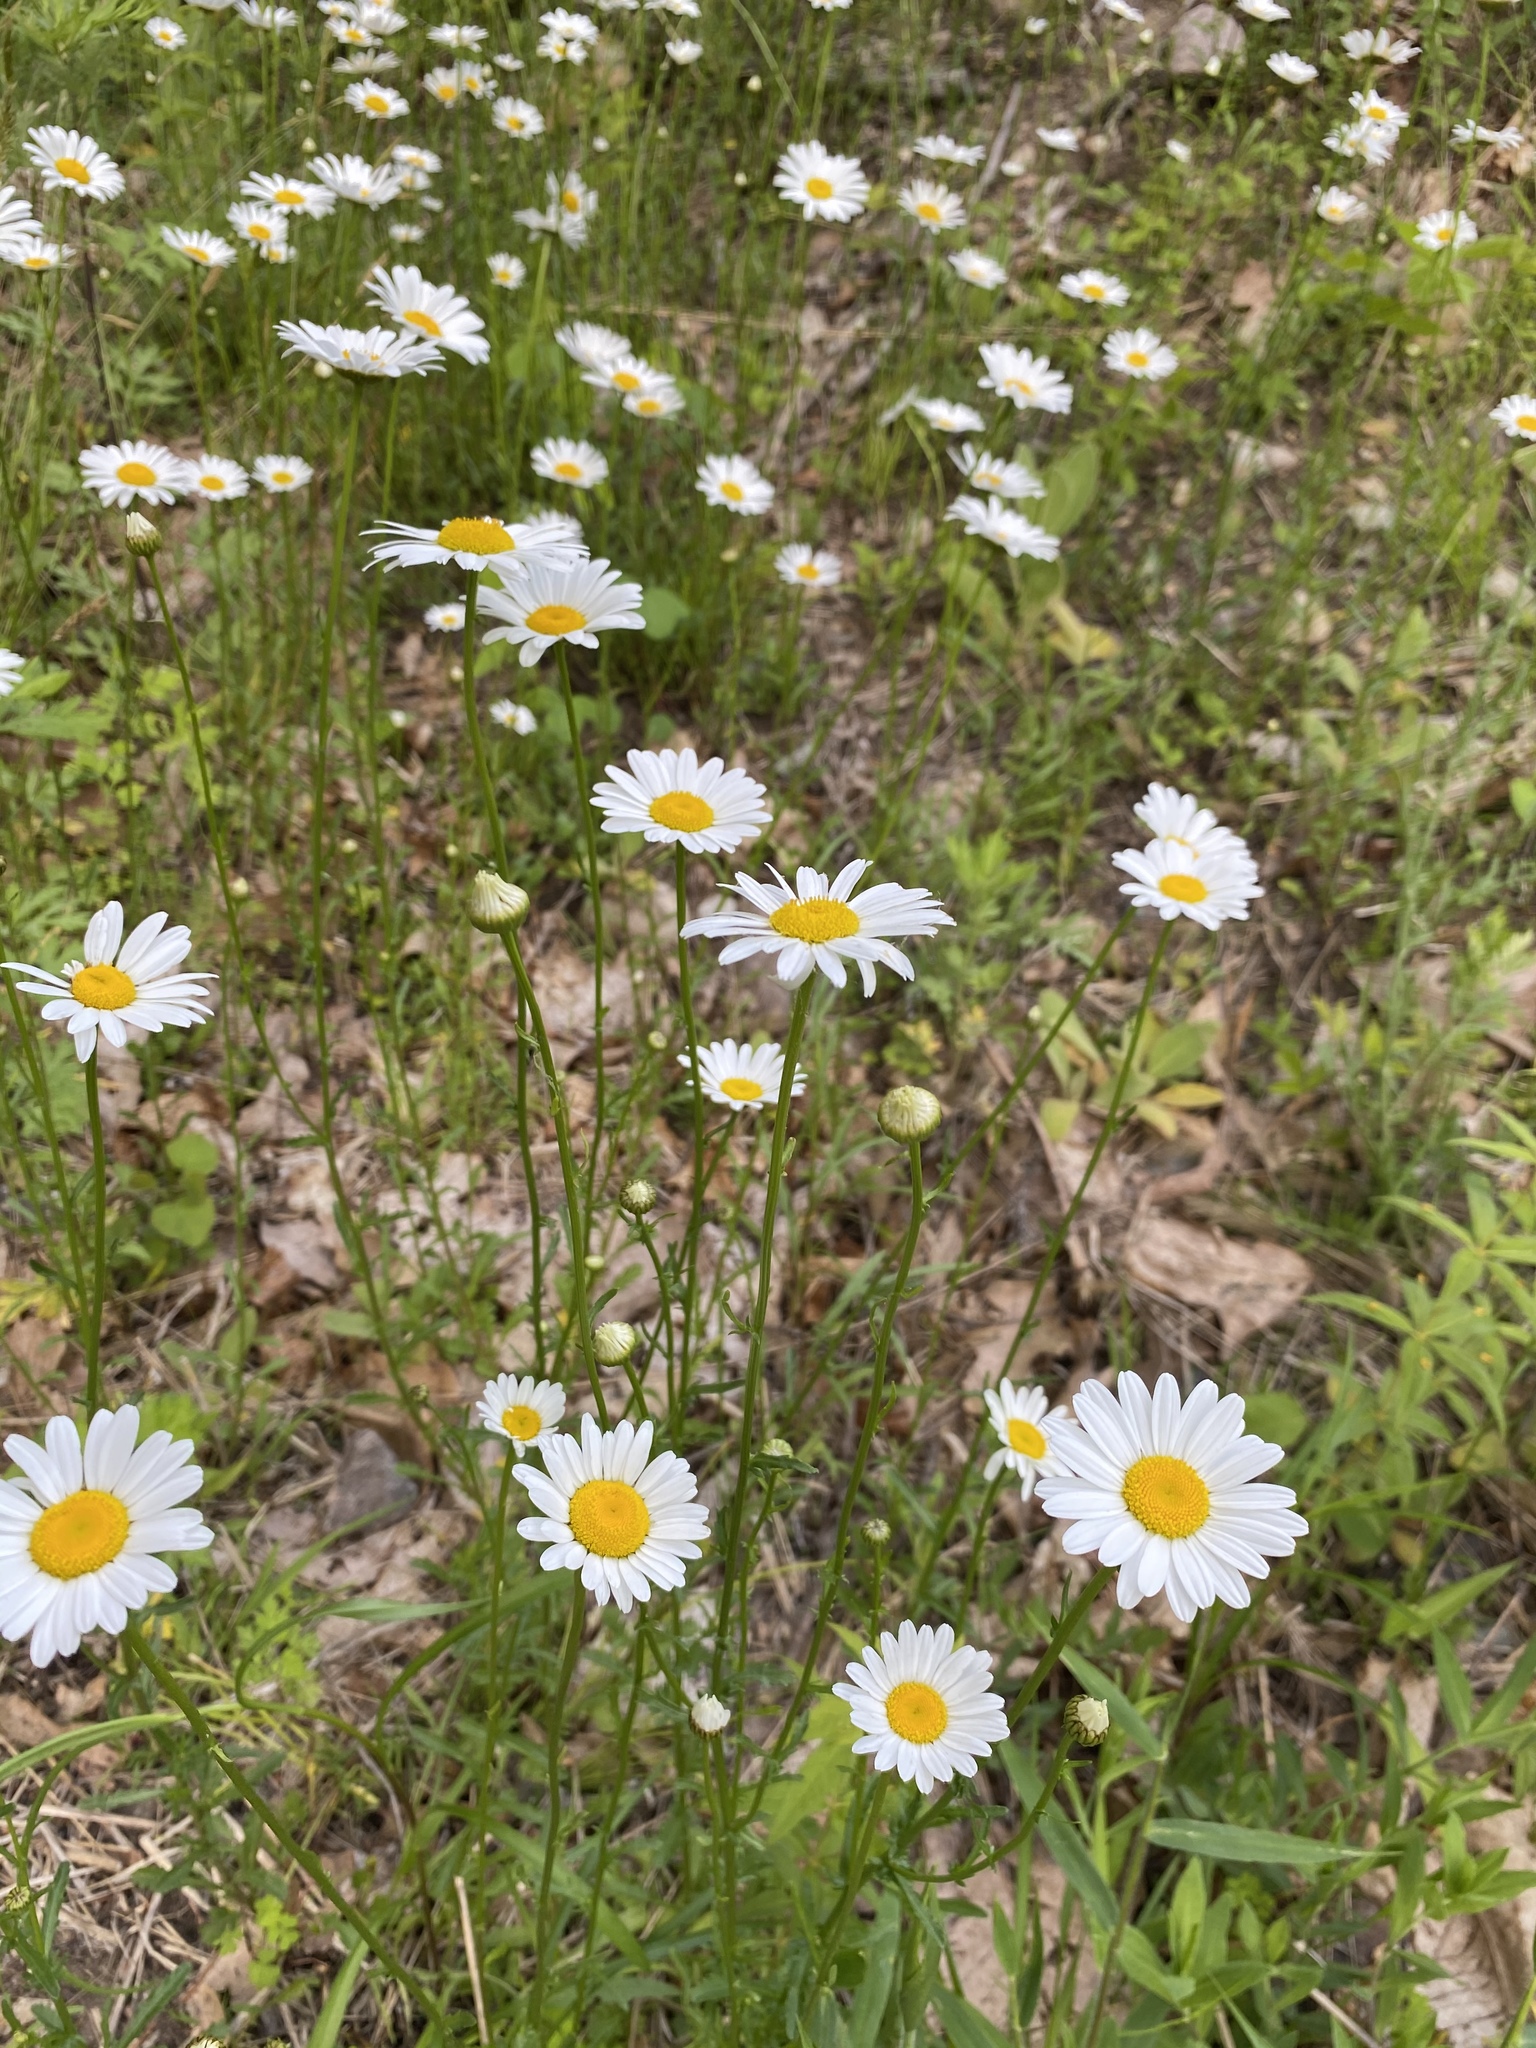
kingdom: Plantae
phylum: Tracheophyta
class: Magnoliopsida
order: Asterales
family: Asteraceae
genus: Leucanthemum
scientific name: Leucanthemum vulgare
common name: Oxeye daisy
